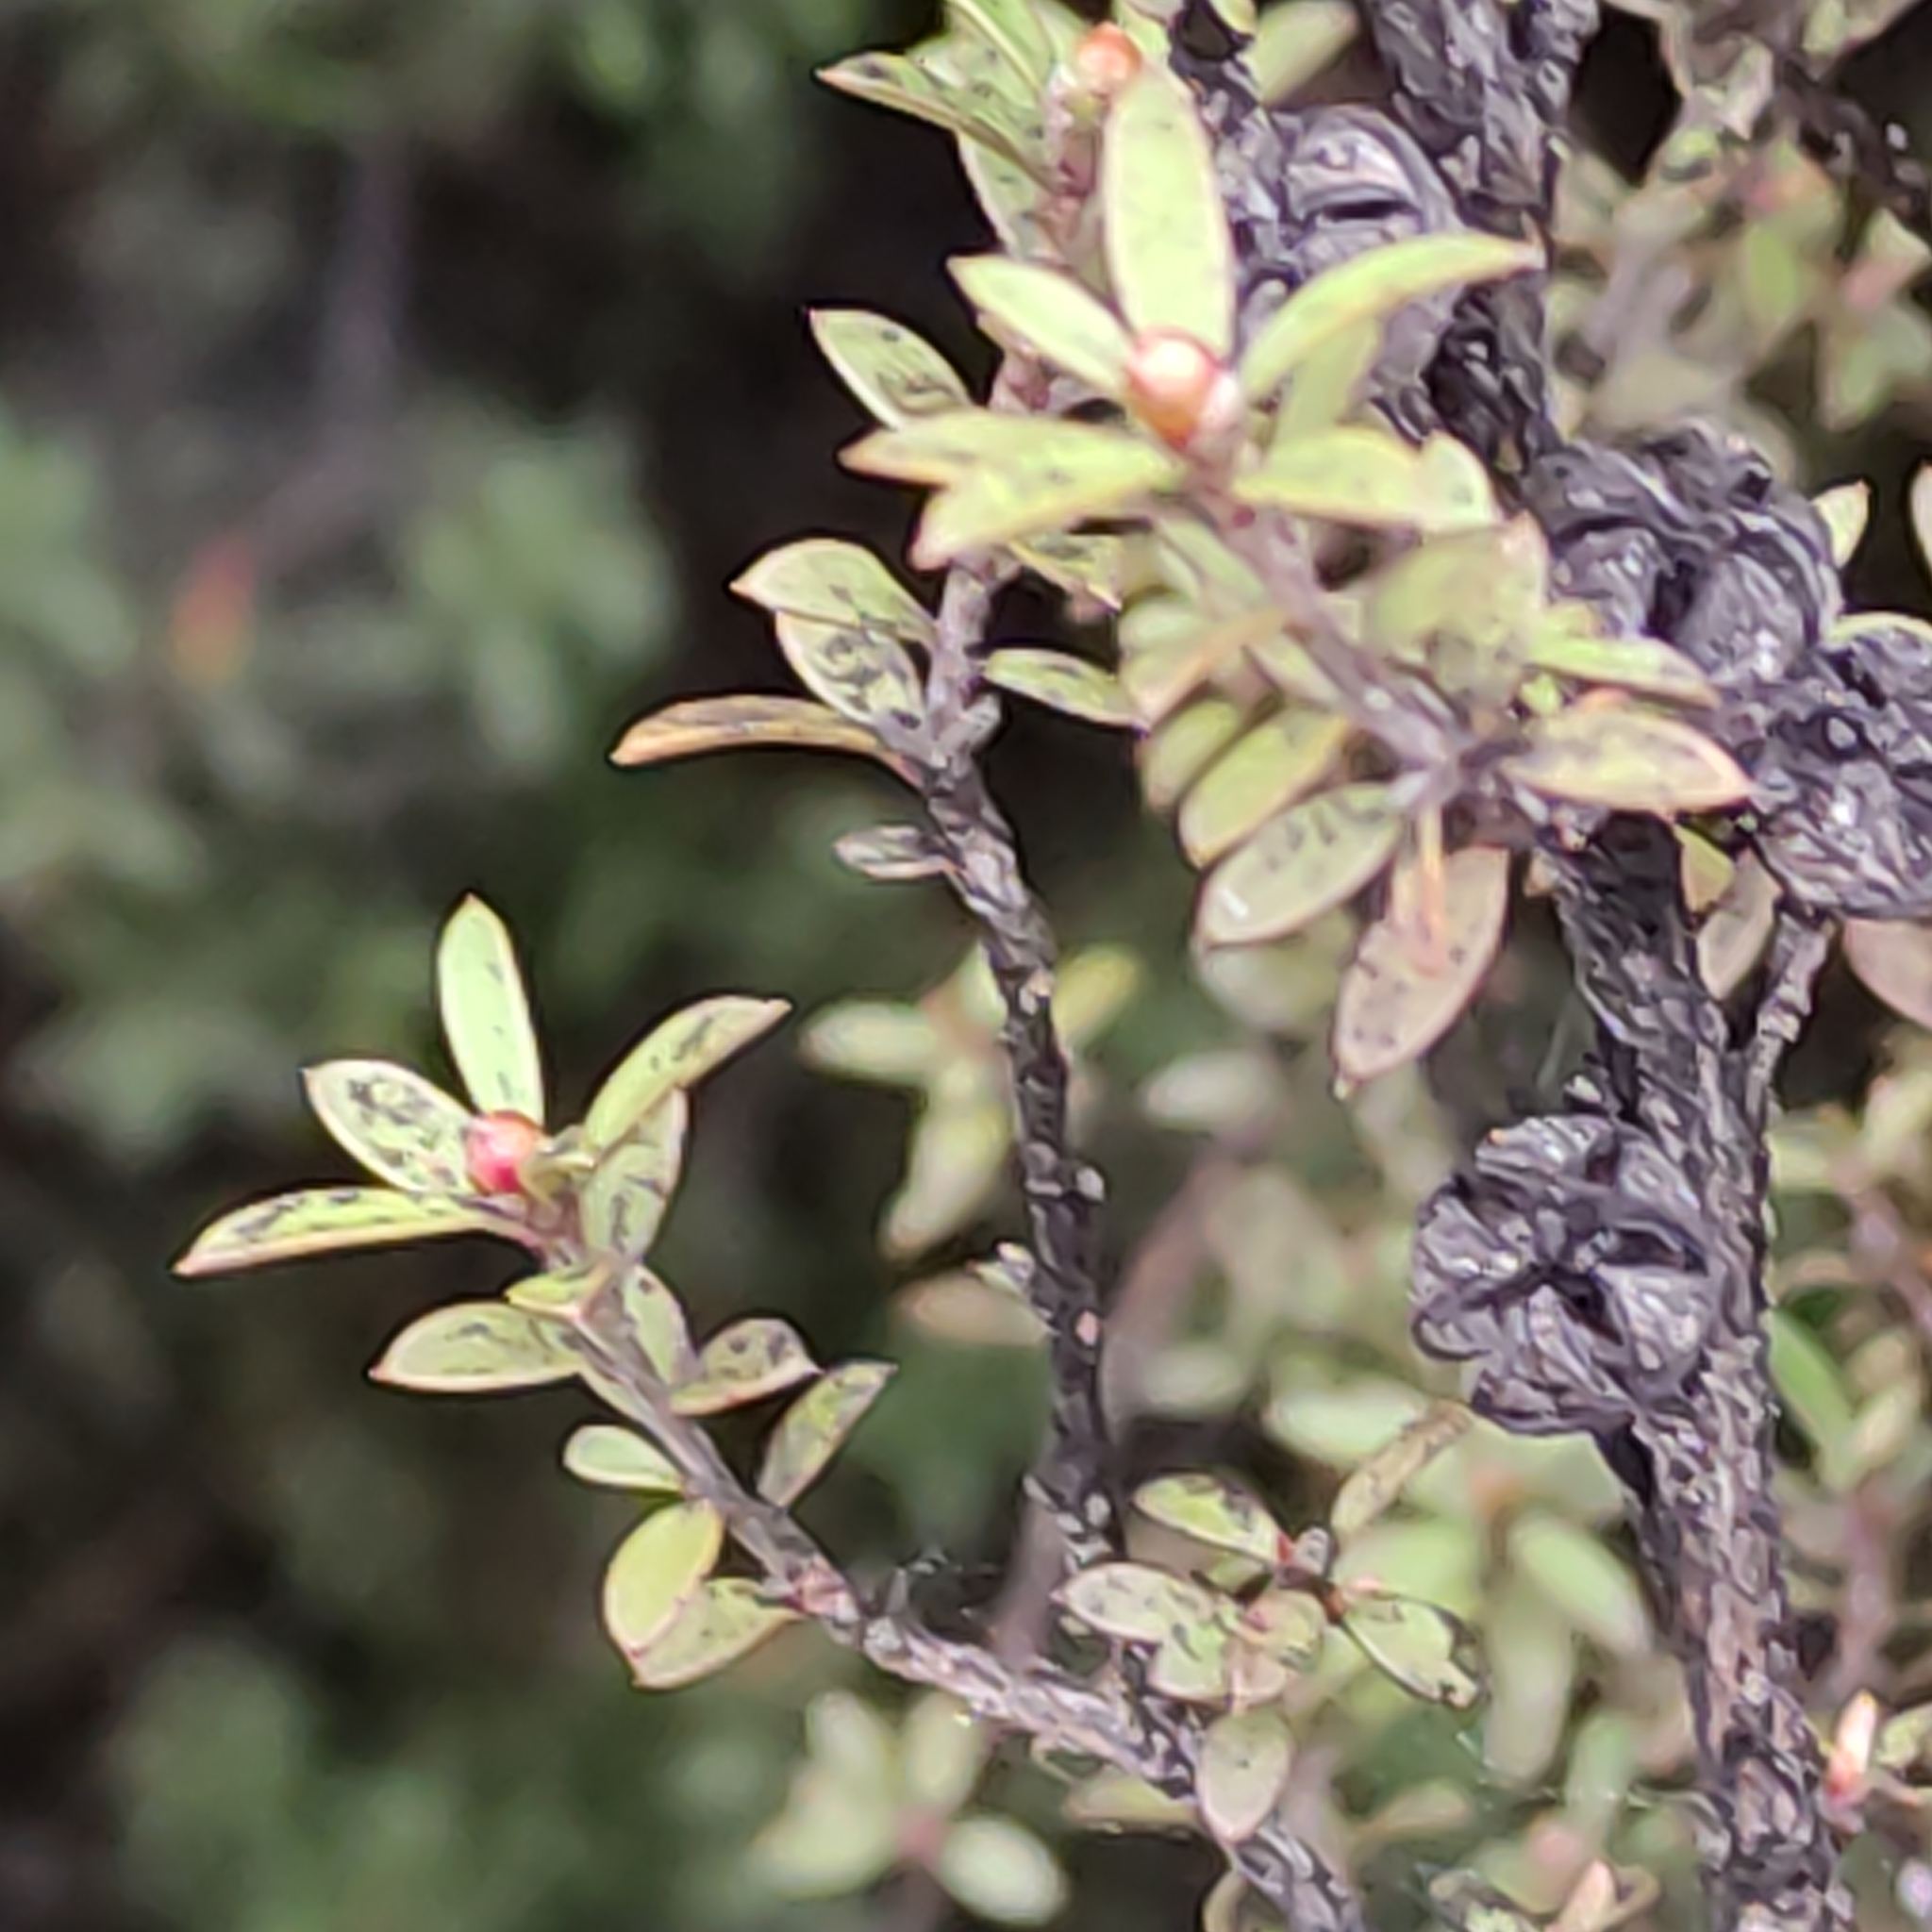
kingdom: Plantae
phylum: Tracheophyta
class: Magnoliopsida
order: Myrtales
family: Myrtaceae
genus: Leptospermum
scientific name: Leptospermum scoparium
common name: Broom tea-tree
